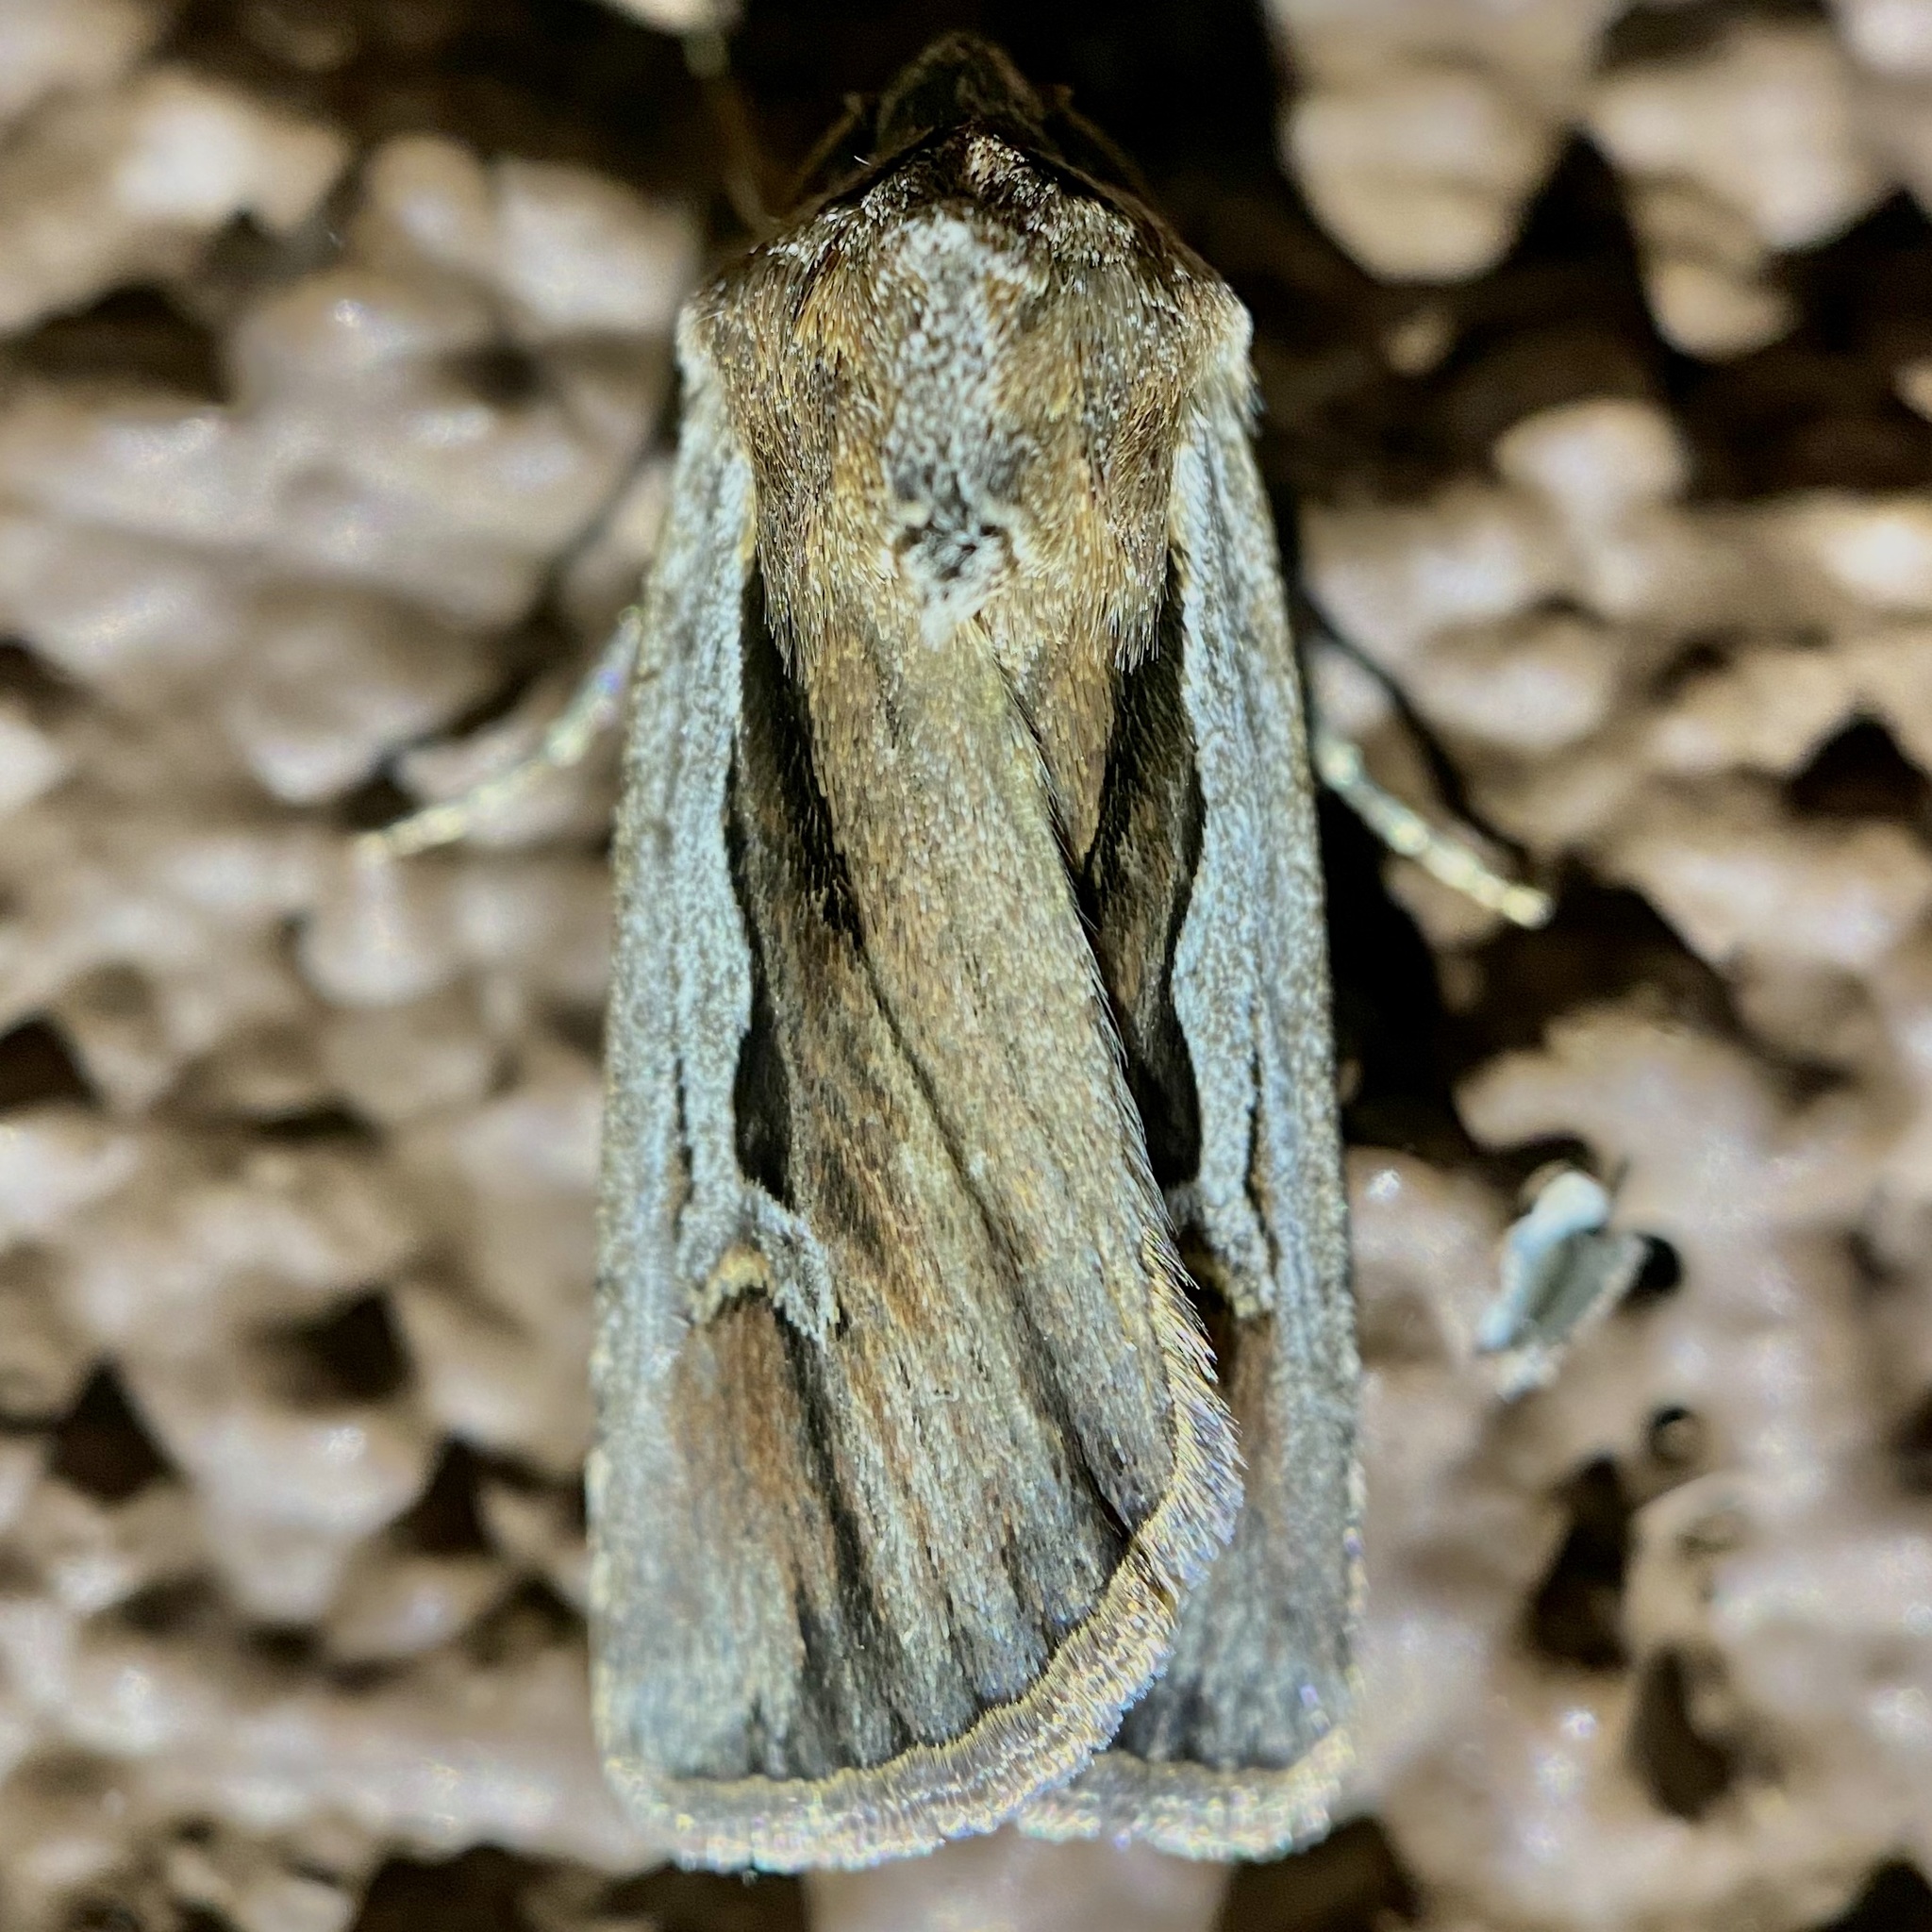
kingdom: Animalia
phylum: Arthropoda
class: Insecta
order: Lepidoptera
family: Noctuidae
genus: Euxoa
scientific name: Euxoa hollemani
